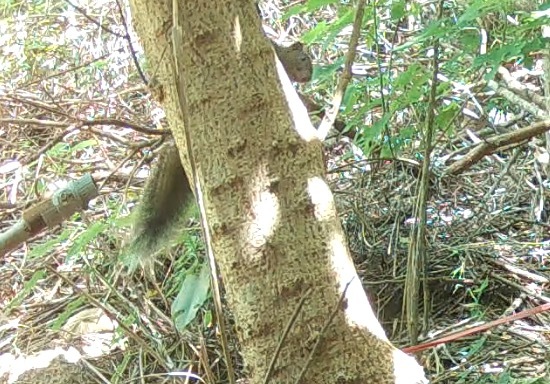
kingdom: Animalia
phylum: Chordata
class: Mammalia
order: Rodentia
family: Sciuridae
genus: Callosciurus
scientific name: Callosciurus erythraeus
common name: Pallas's squirrel
